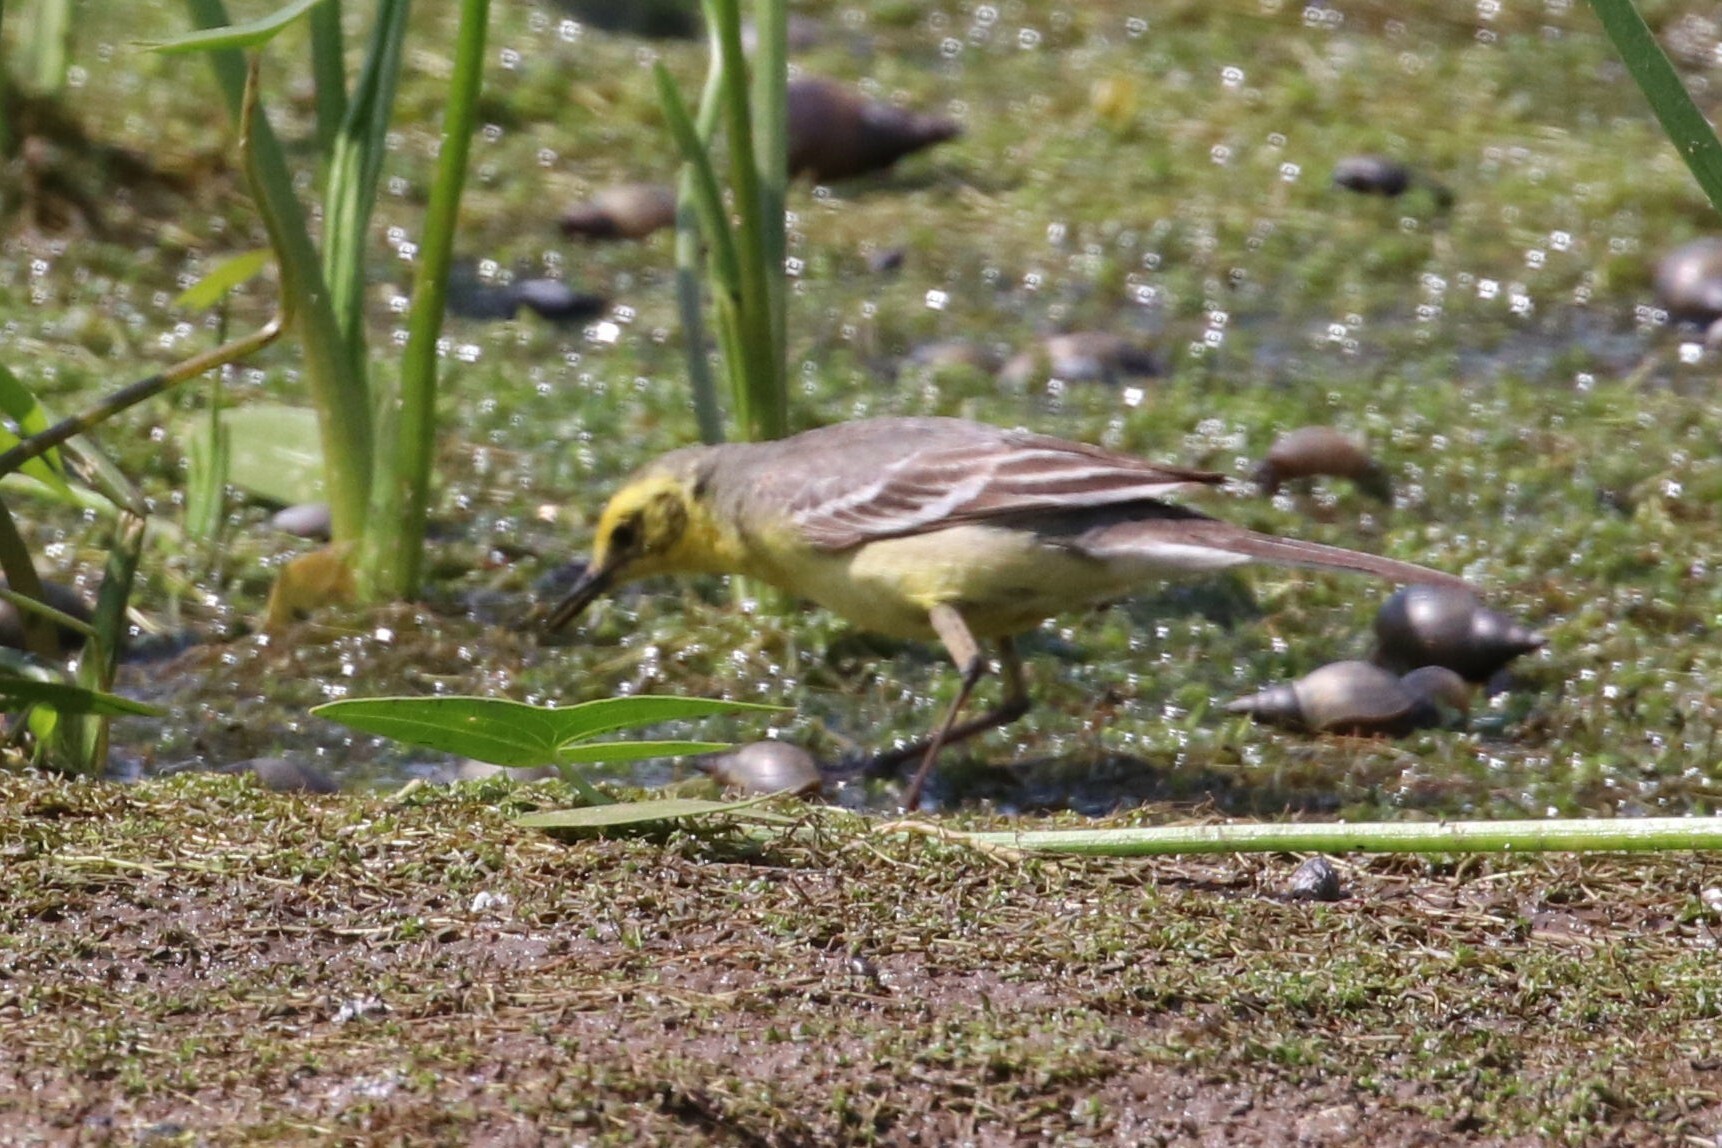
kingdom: Animalia
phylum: Chordata
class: Aves
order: Passeriformes
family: Motacillidae
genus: Motacilla
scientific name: Motacilla citreola
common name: Citrine wagtail
